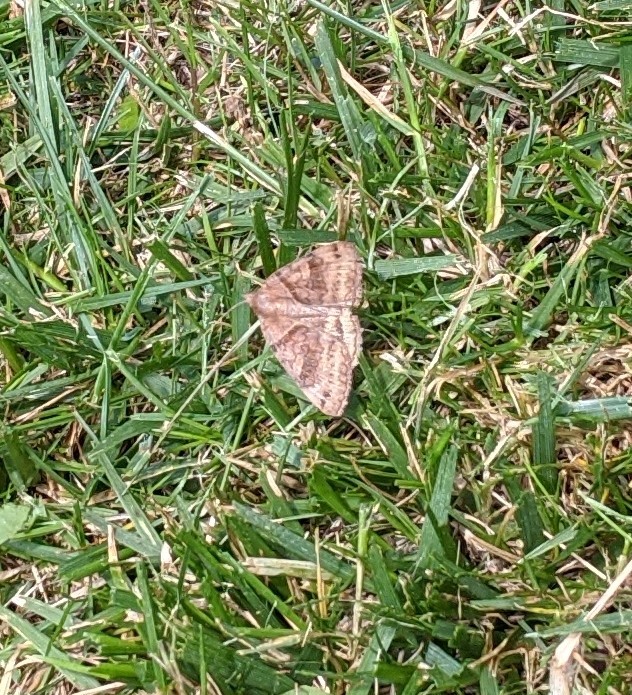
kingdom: Animalia
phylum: Arthropoda
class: Insecta
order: Lepidoptera
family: Erebidae
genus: Caenurgina
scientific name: Caenurgina crassiuscula
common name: Double-barred
